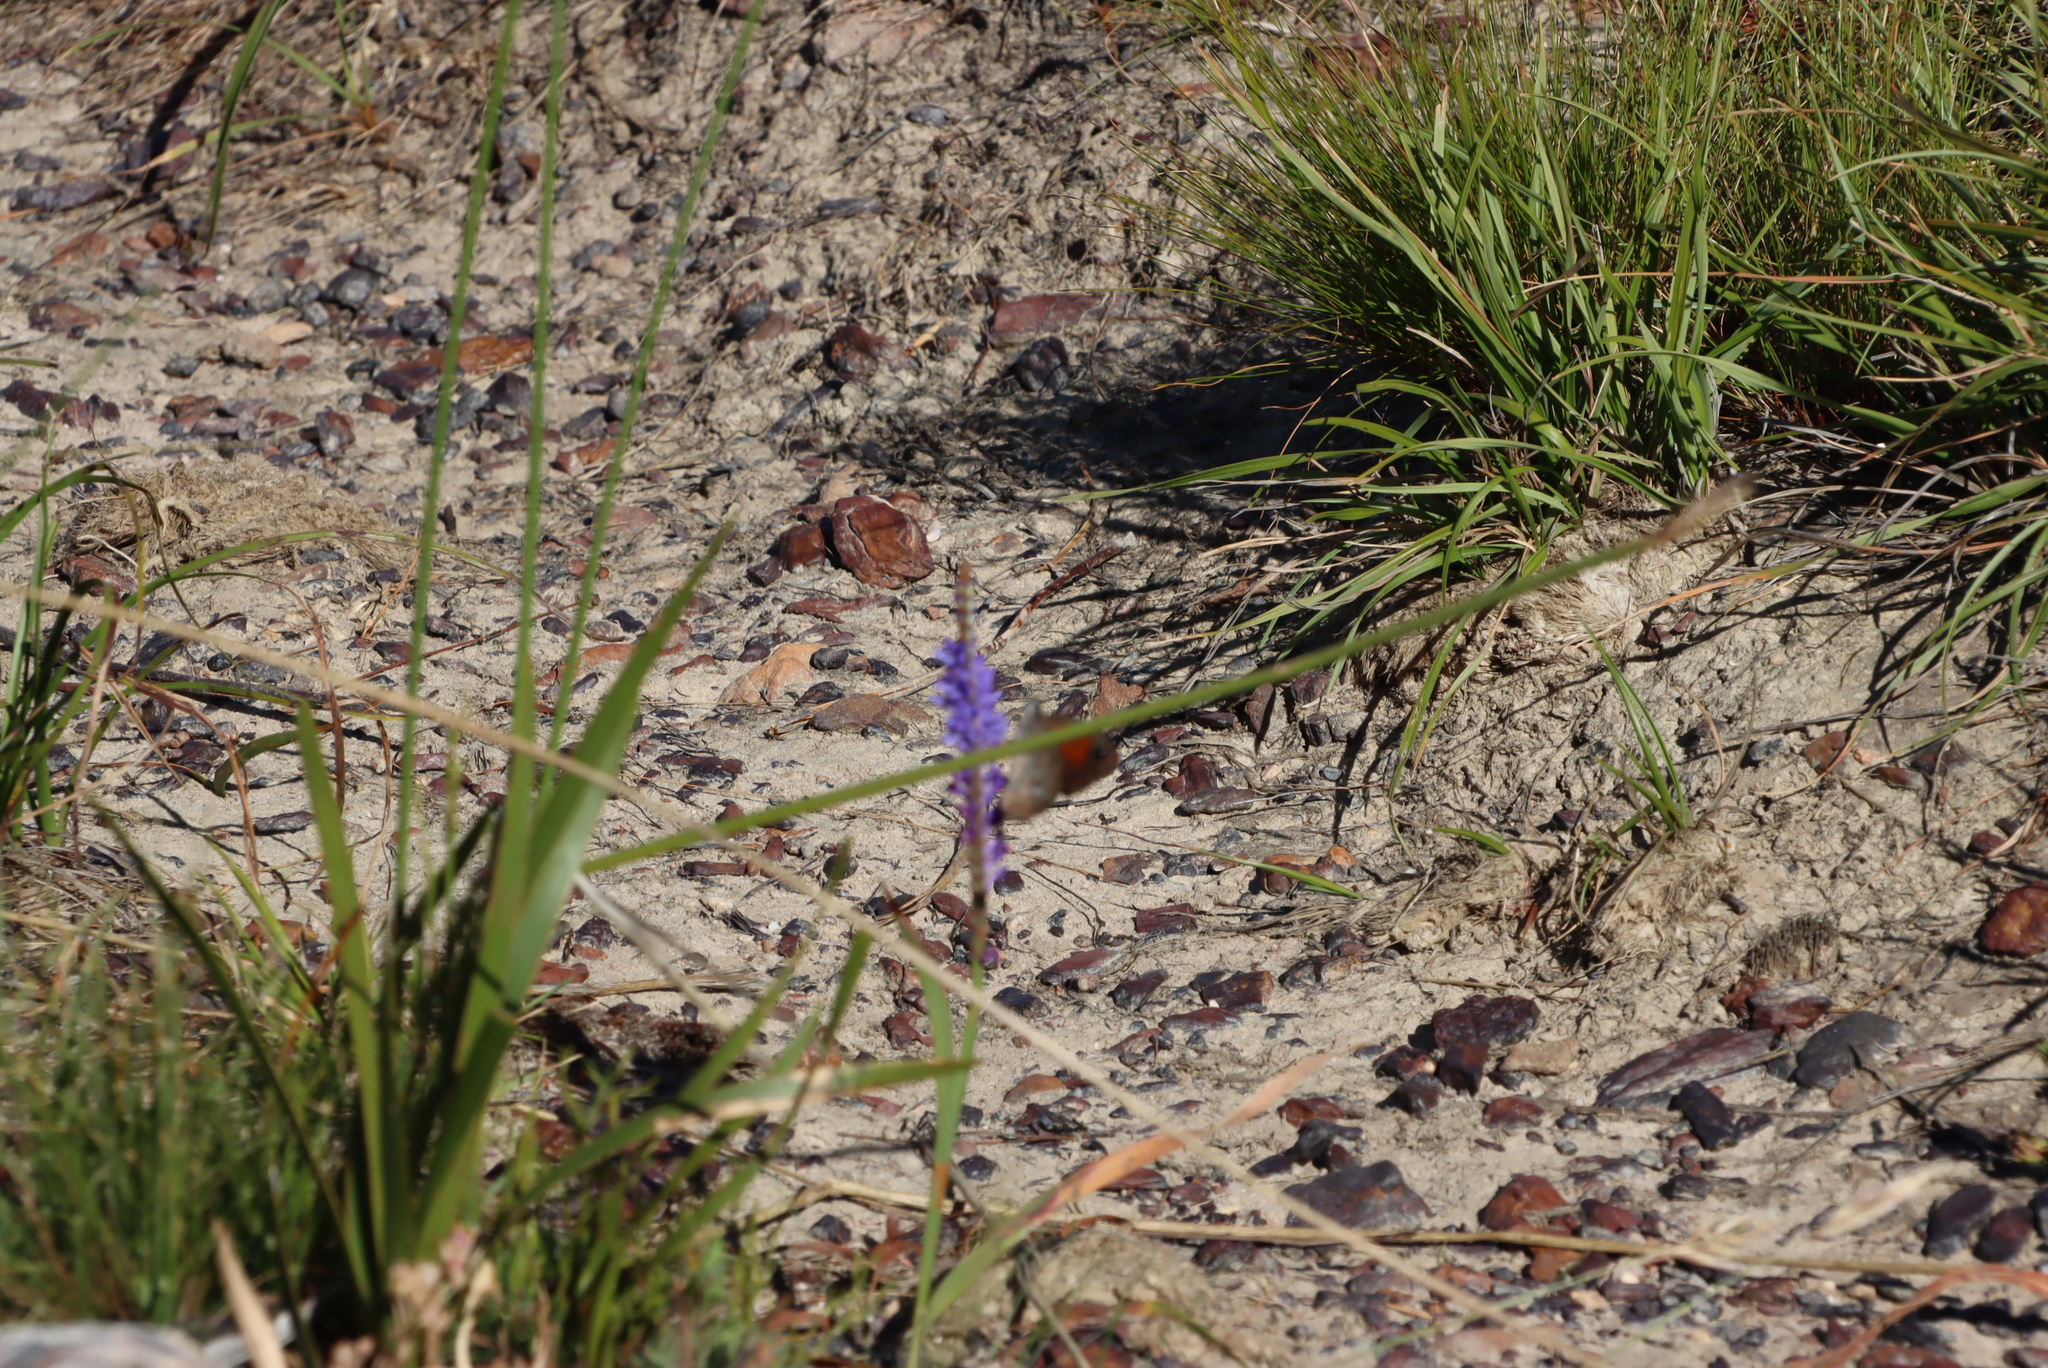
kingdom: Plantae
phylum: Tracheophyta
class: Liliopsida
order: Asparagales
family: Iridaceae
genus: Micranthus
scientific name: Micranthus alopecuroides
